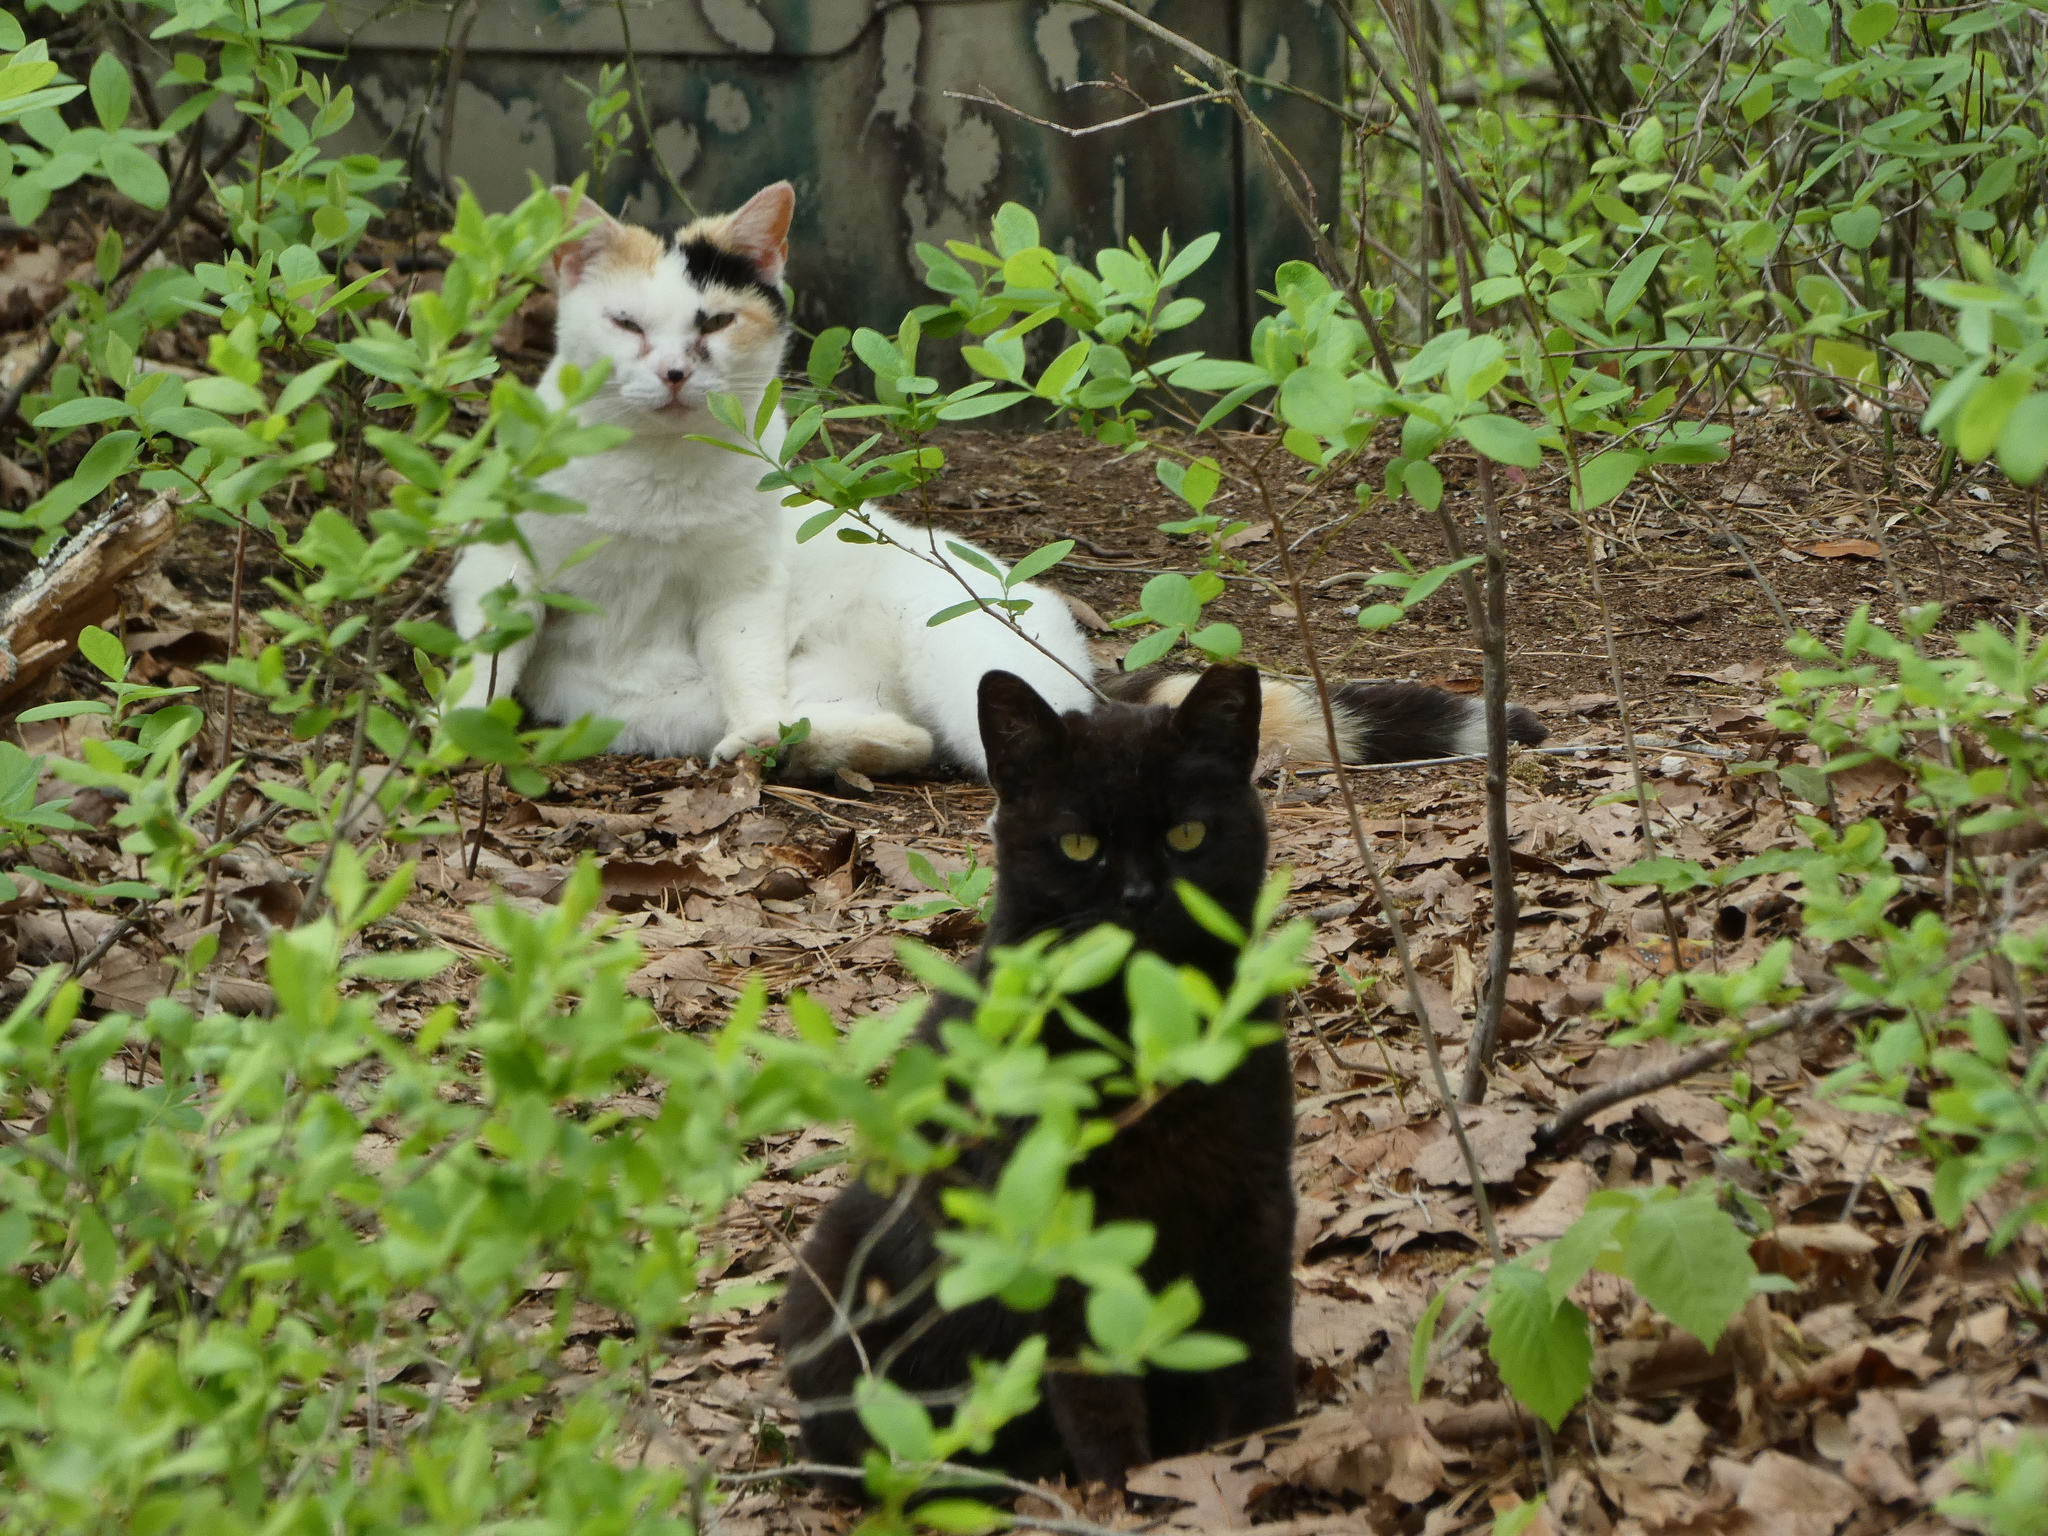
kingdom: Animalia
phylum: Chordata
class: Mammalia
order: Carnivora
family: Felidae
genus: Felis
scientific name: Felis catus
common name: Domestic cat
